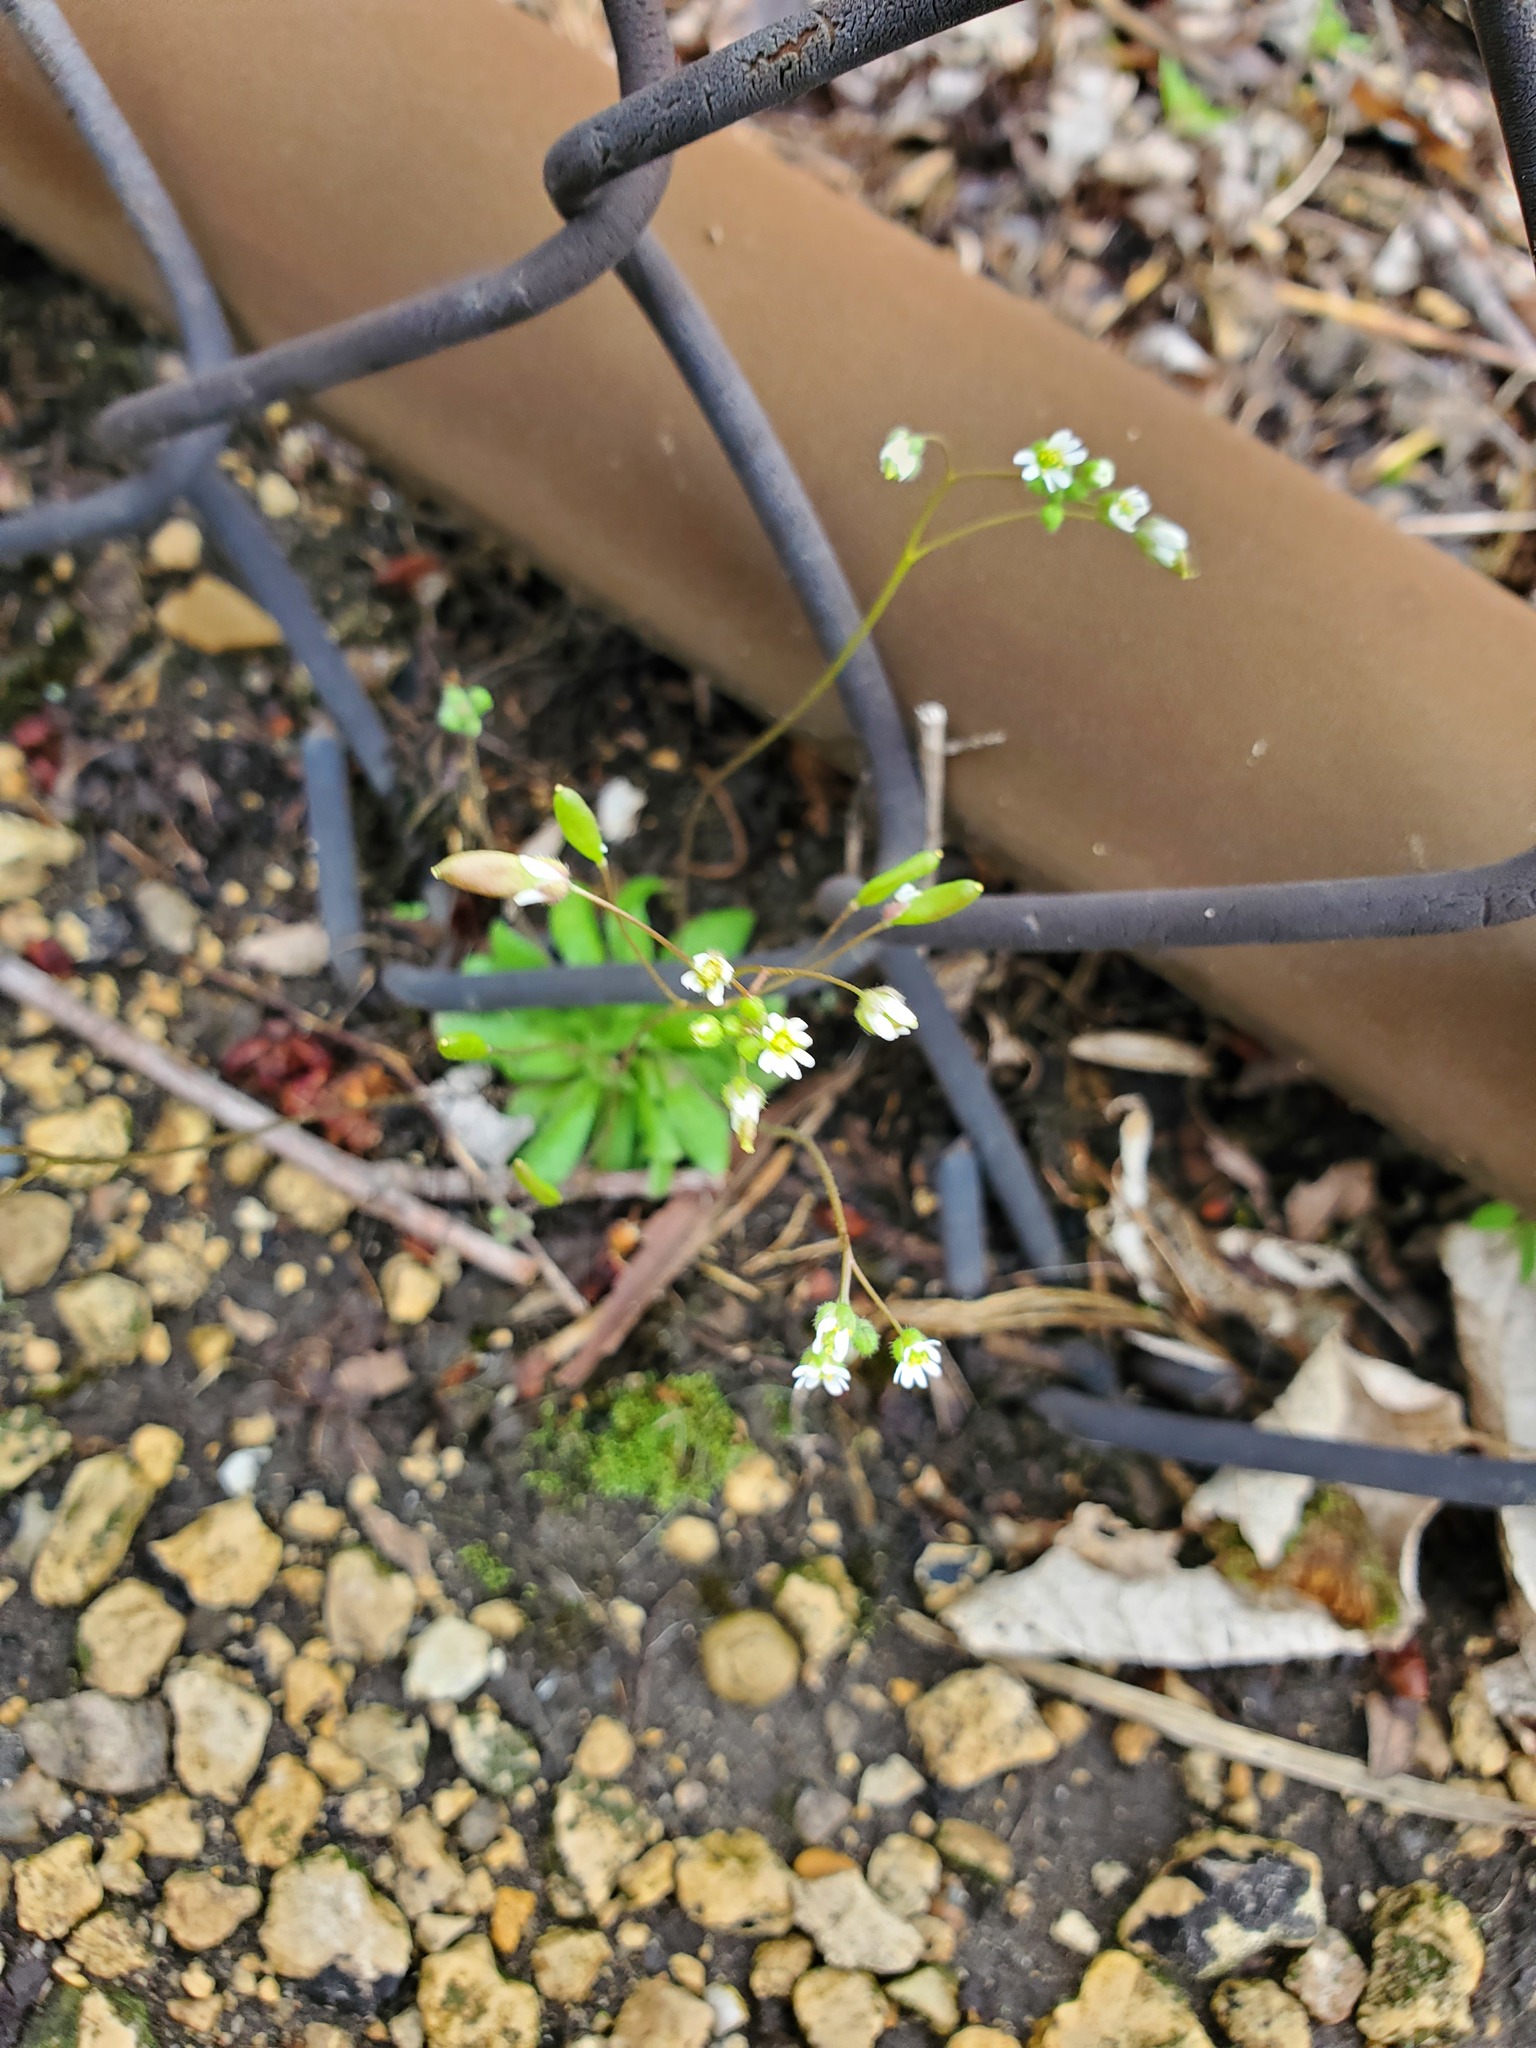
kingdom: Plantae
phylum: Tracheophyta
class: Magnoliopsida
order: Brassicales
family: Brassicaceae
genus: Draba
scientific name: Draba verna
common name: Spring draba
